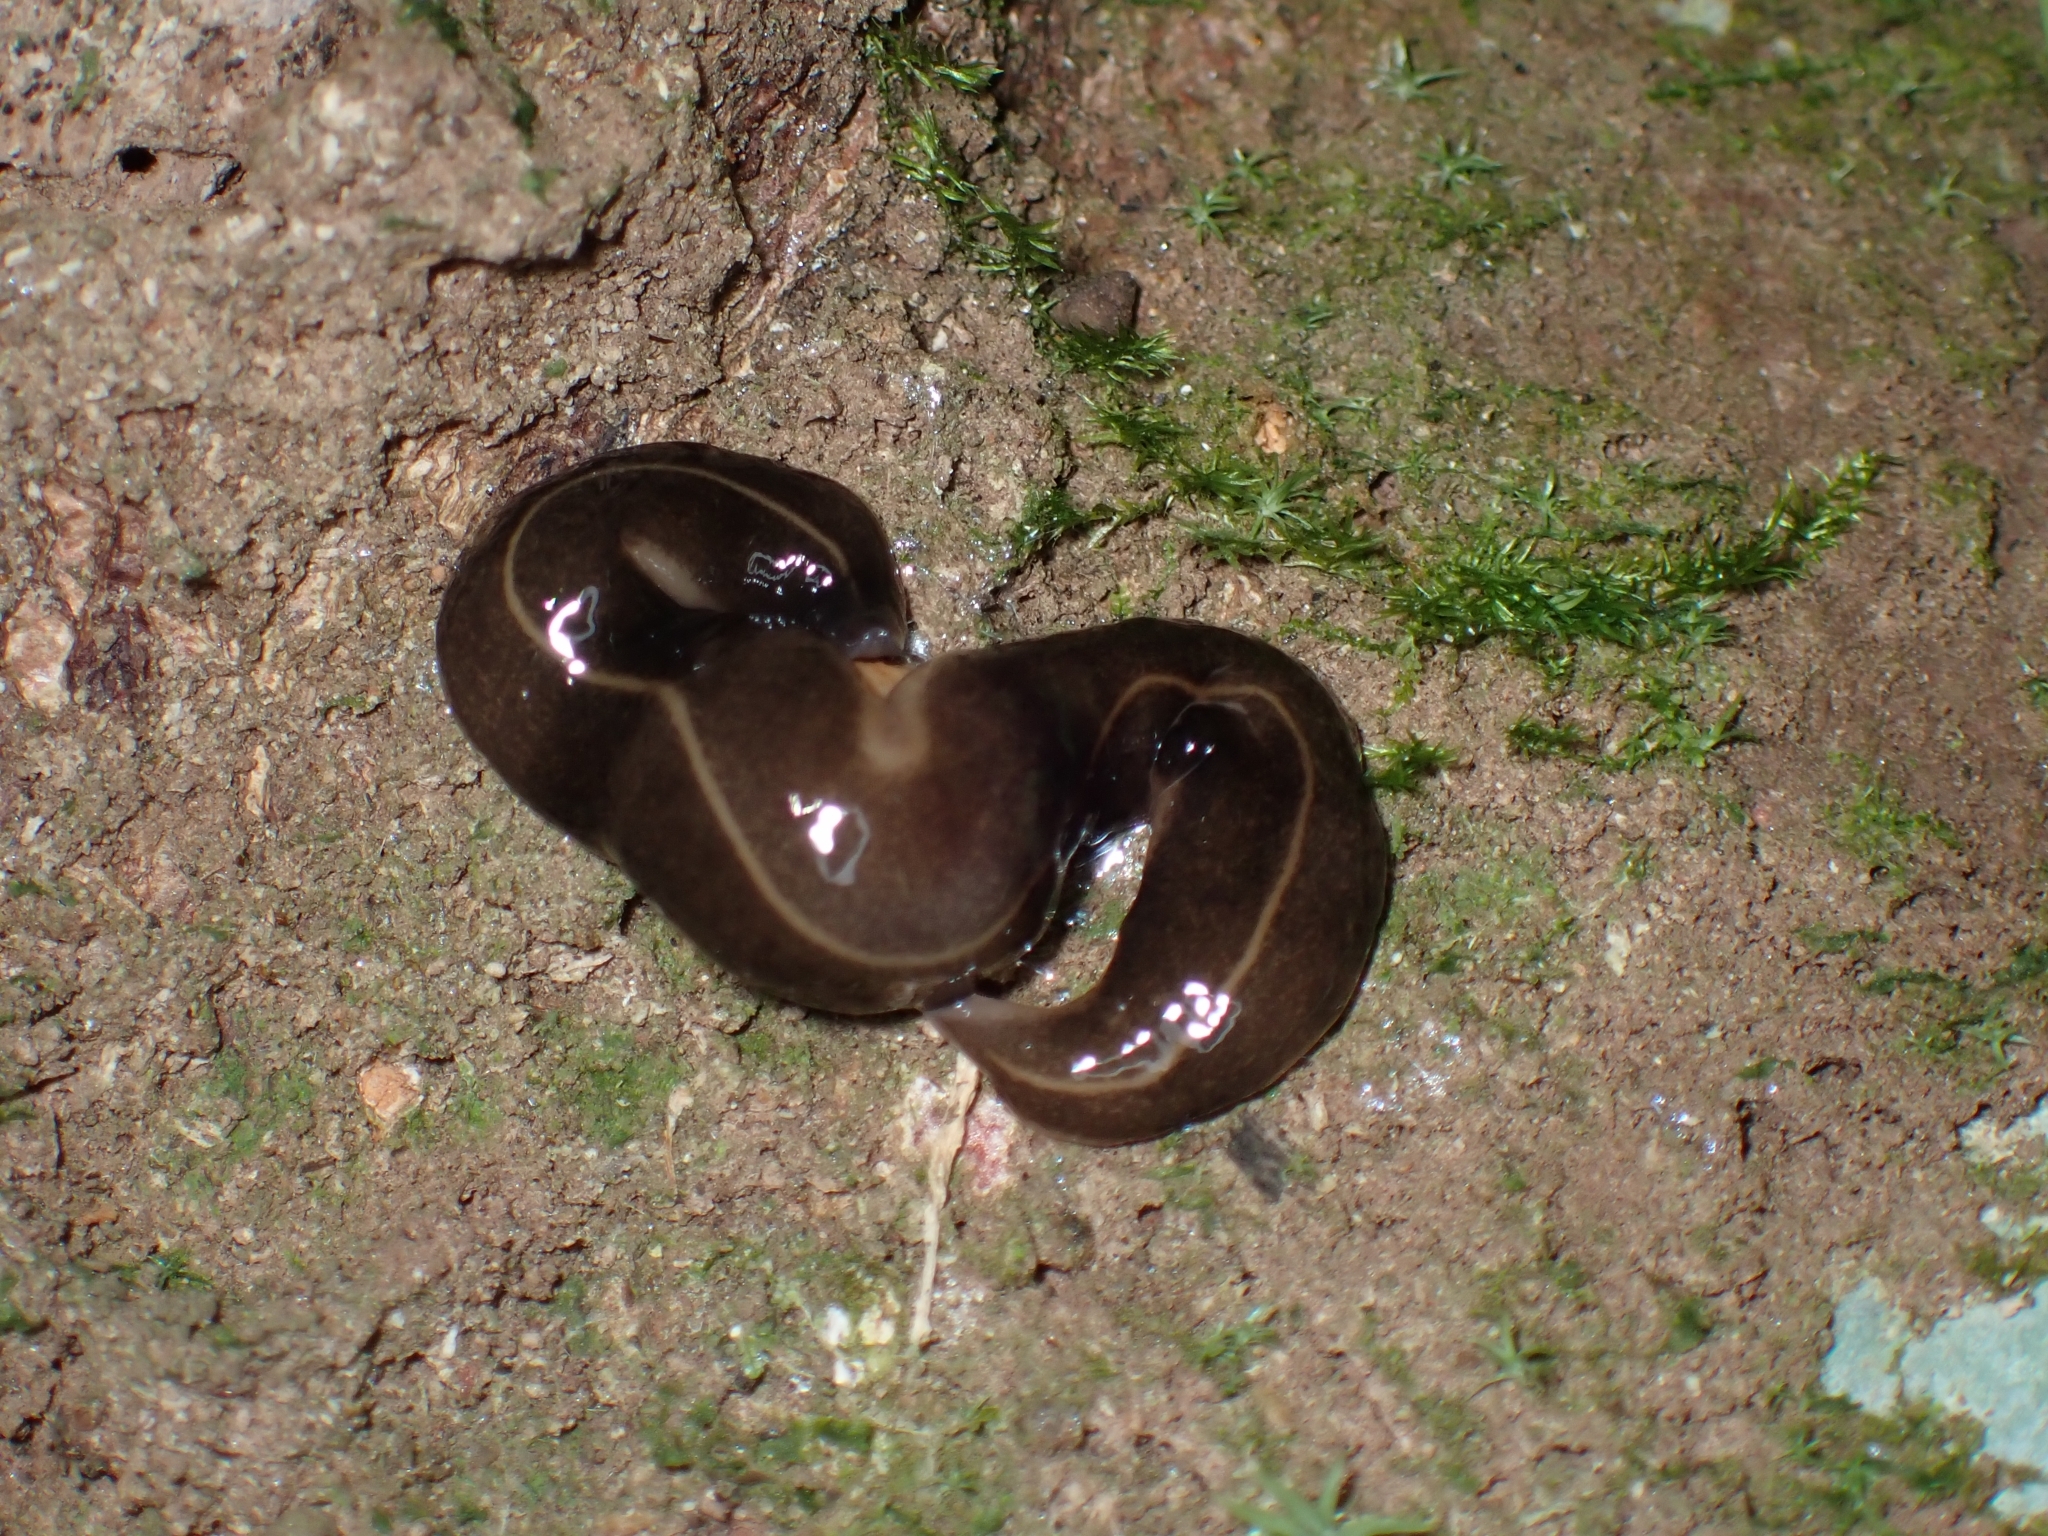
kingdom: Animalia
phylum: Platyhelminthes
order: Tricladida
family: Geoplanidae
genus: Platydemus
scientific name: Platydemus manokwari
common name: New guinea flatworm
